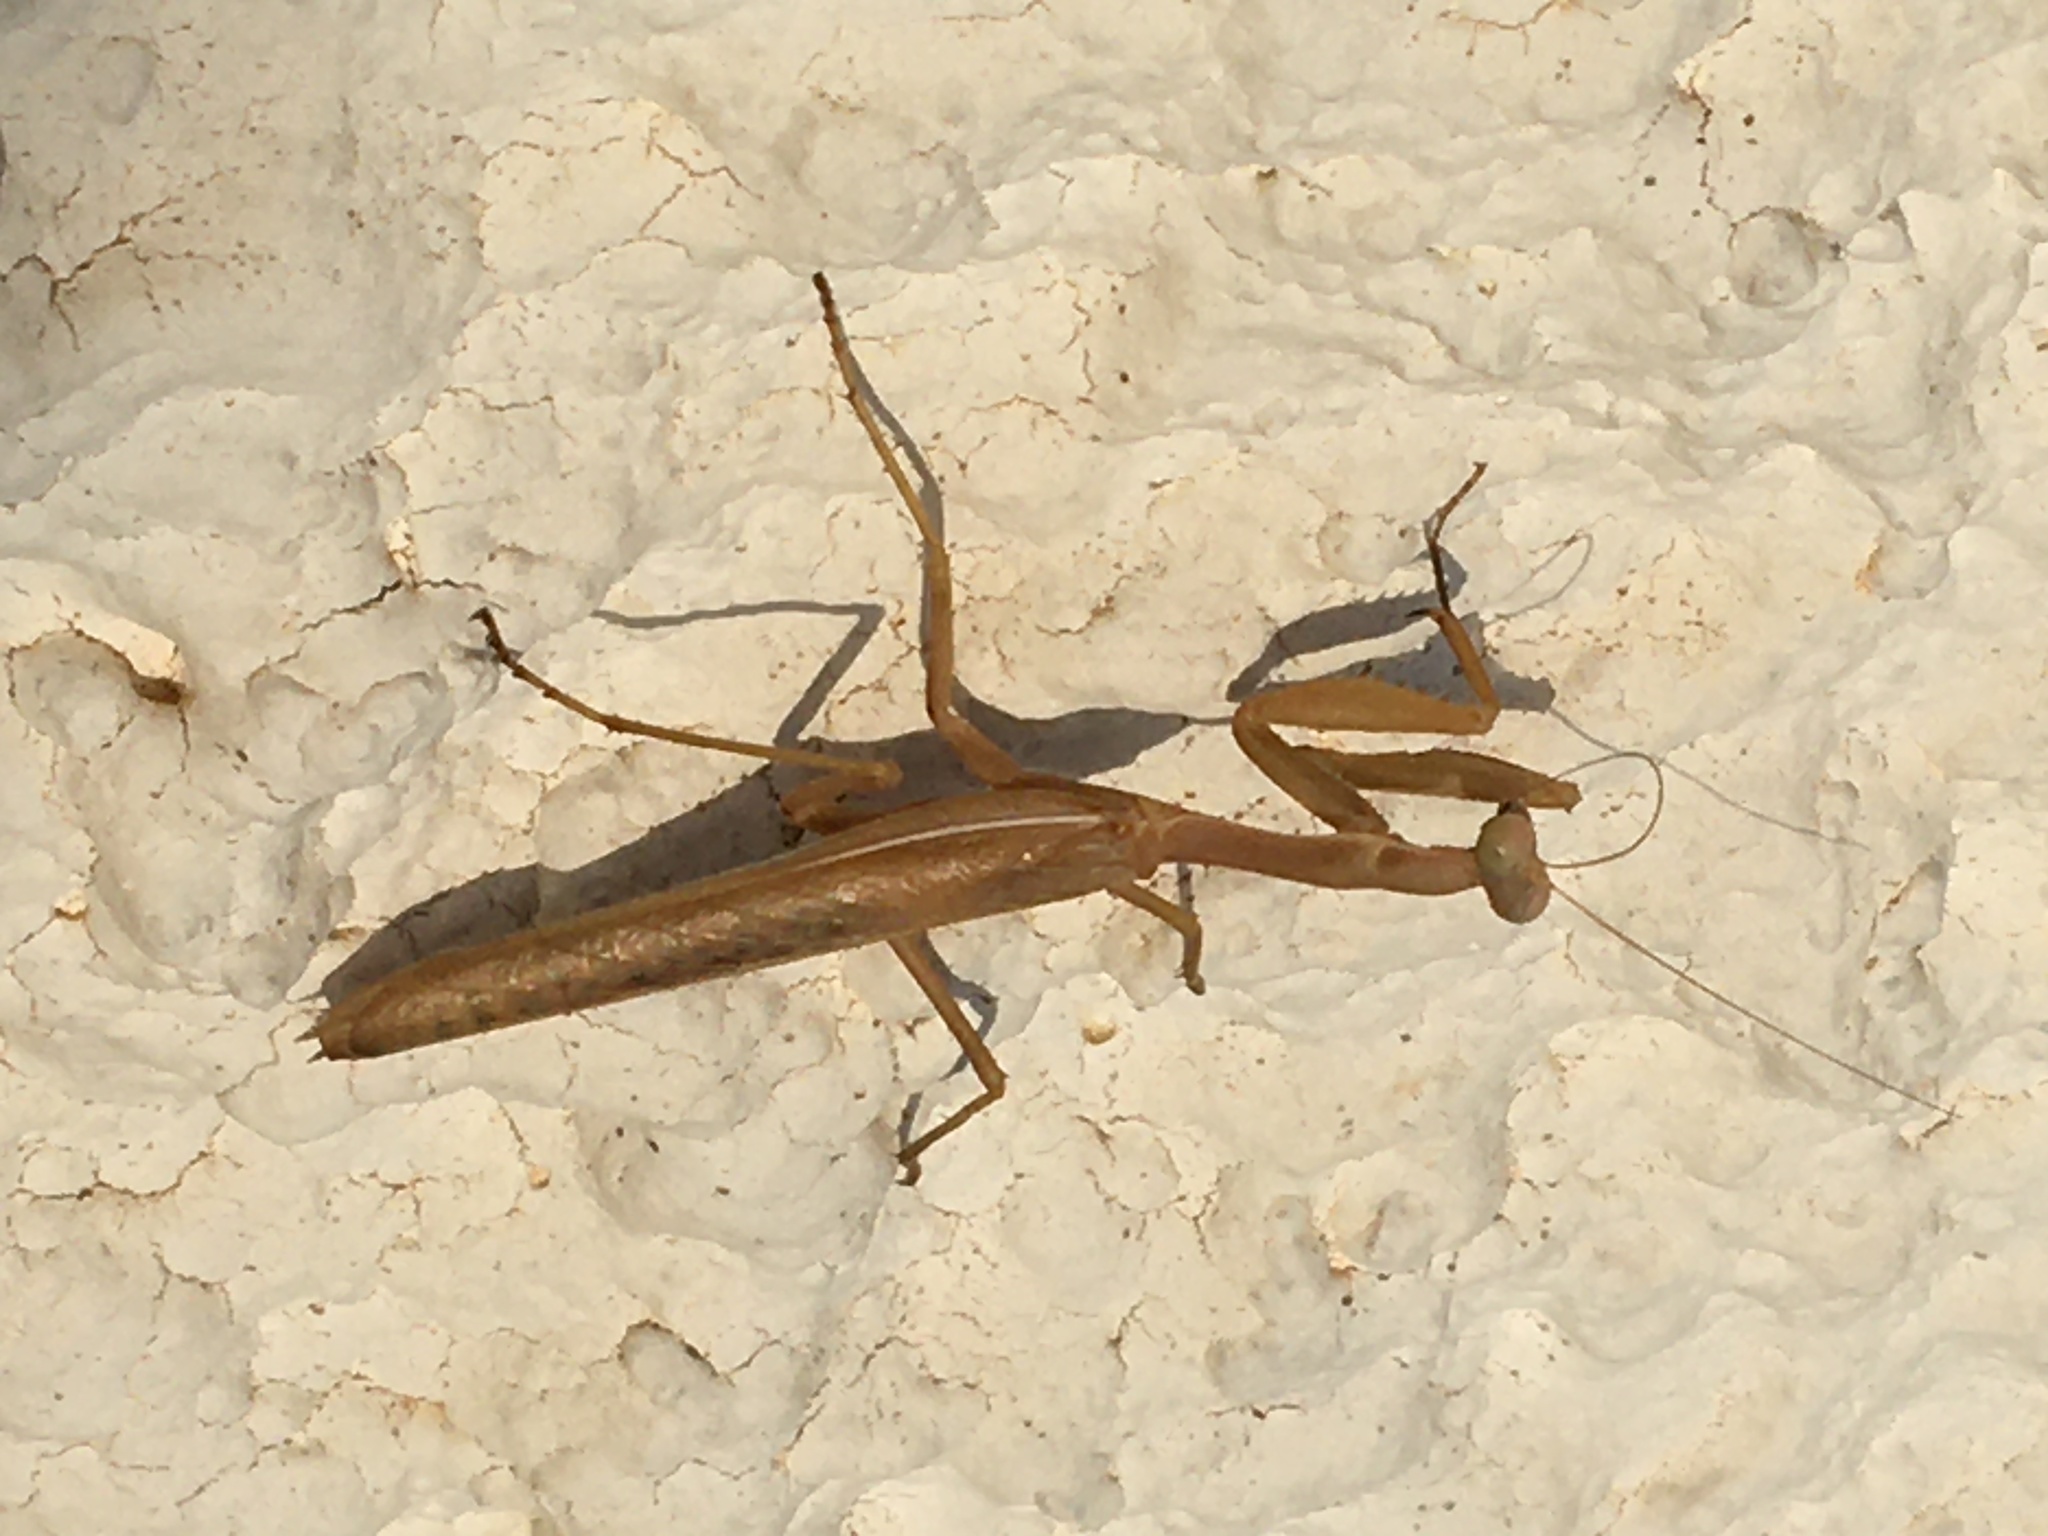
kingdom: Animalia
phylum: Arthropoda
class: Insecta
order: Mantodea
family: Eremiaphilidae
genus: Iris
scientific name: Iris oratoria
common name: Mediterranean mantis
